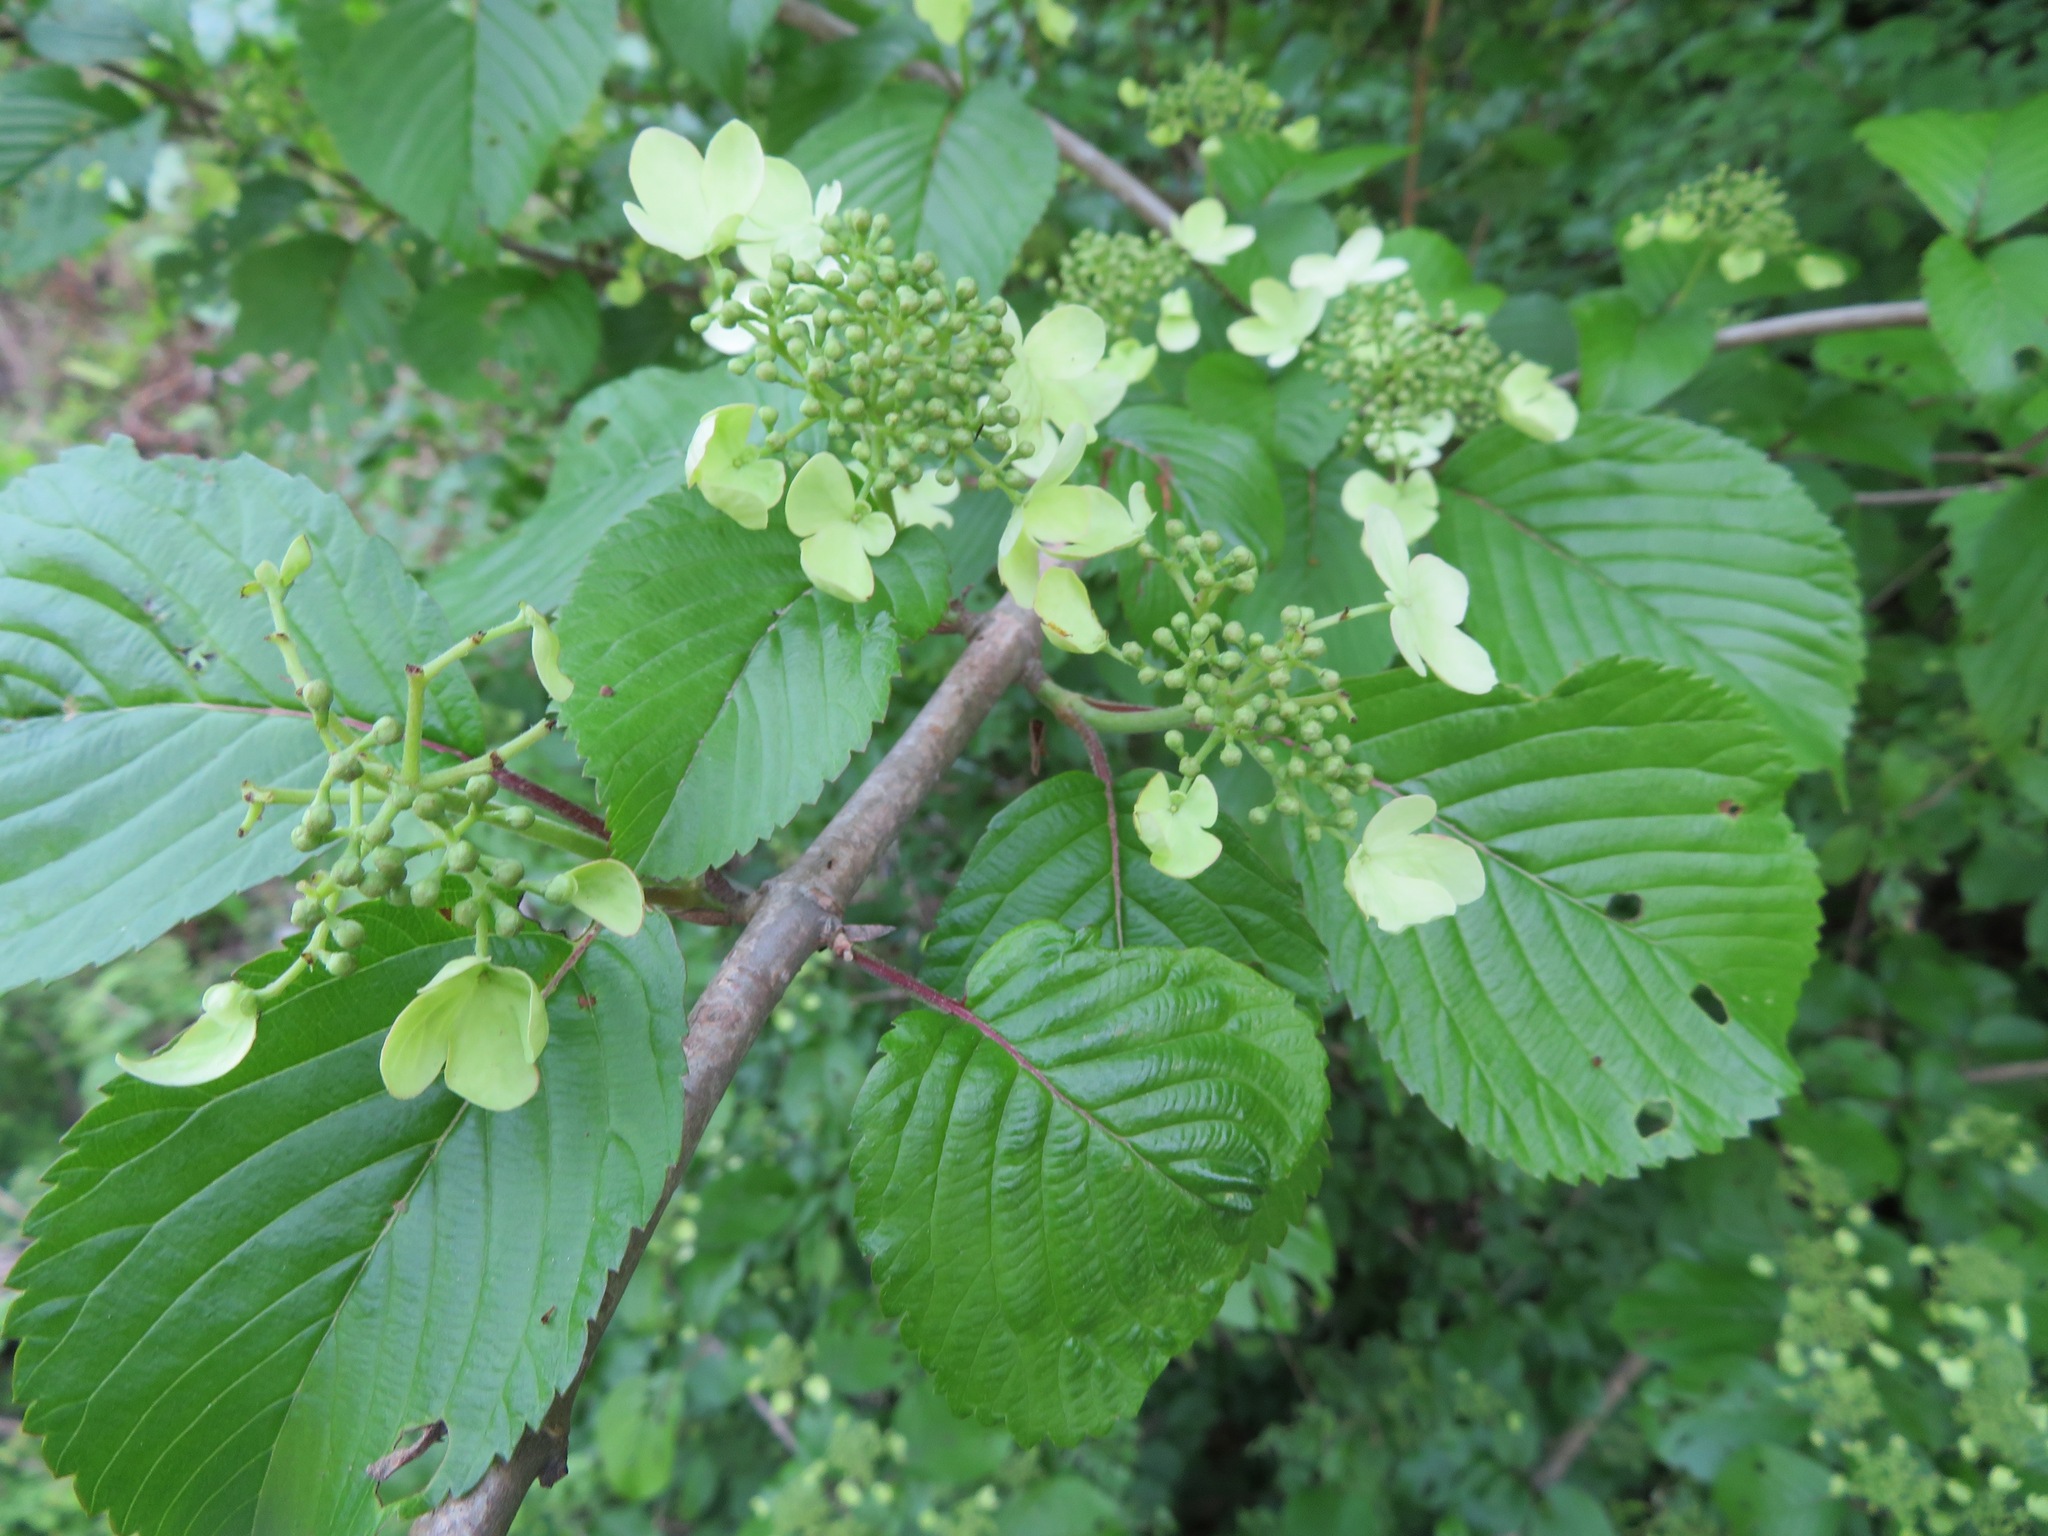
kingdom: Plantae
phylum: Tracheophyta
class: Magnoliopsida
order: Dipsacales
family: Viburnaceae
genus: Viburnum
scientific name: Viburnum plicatum
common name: Japanese snowball
